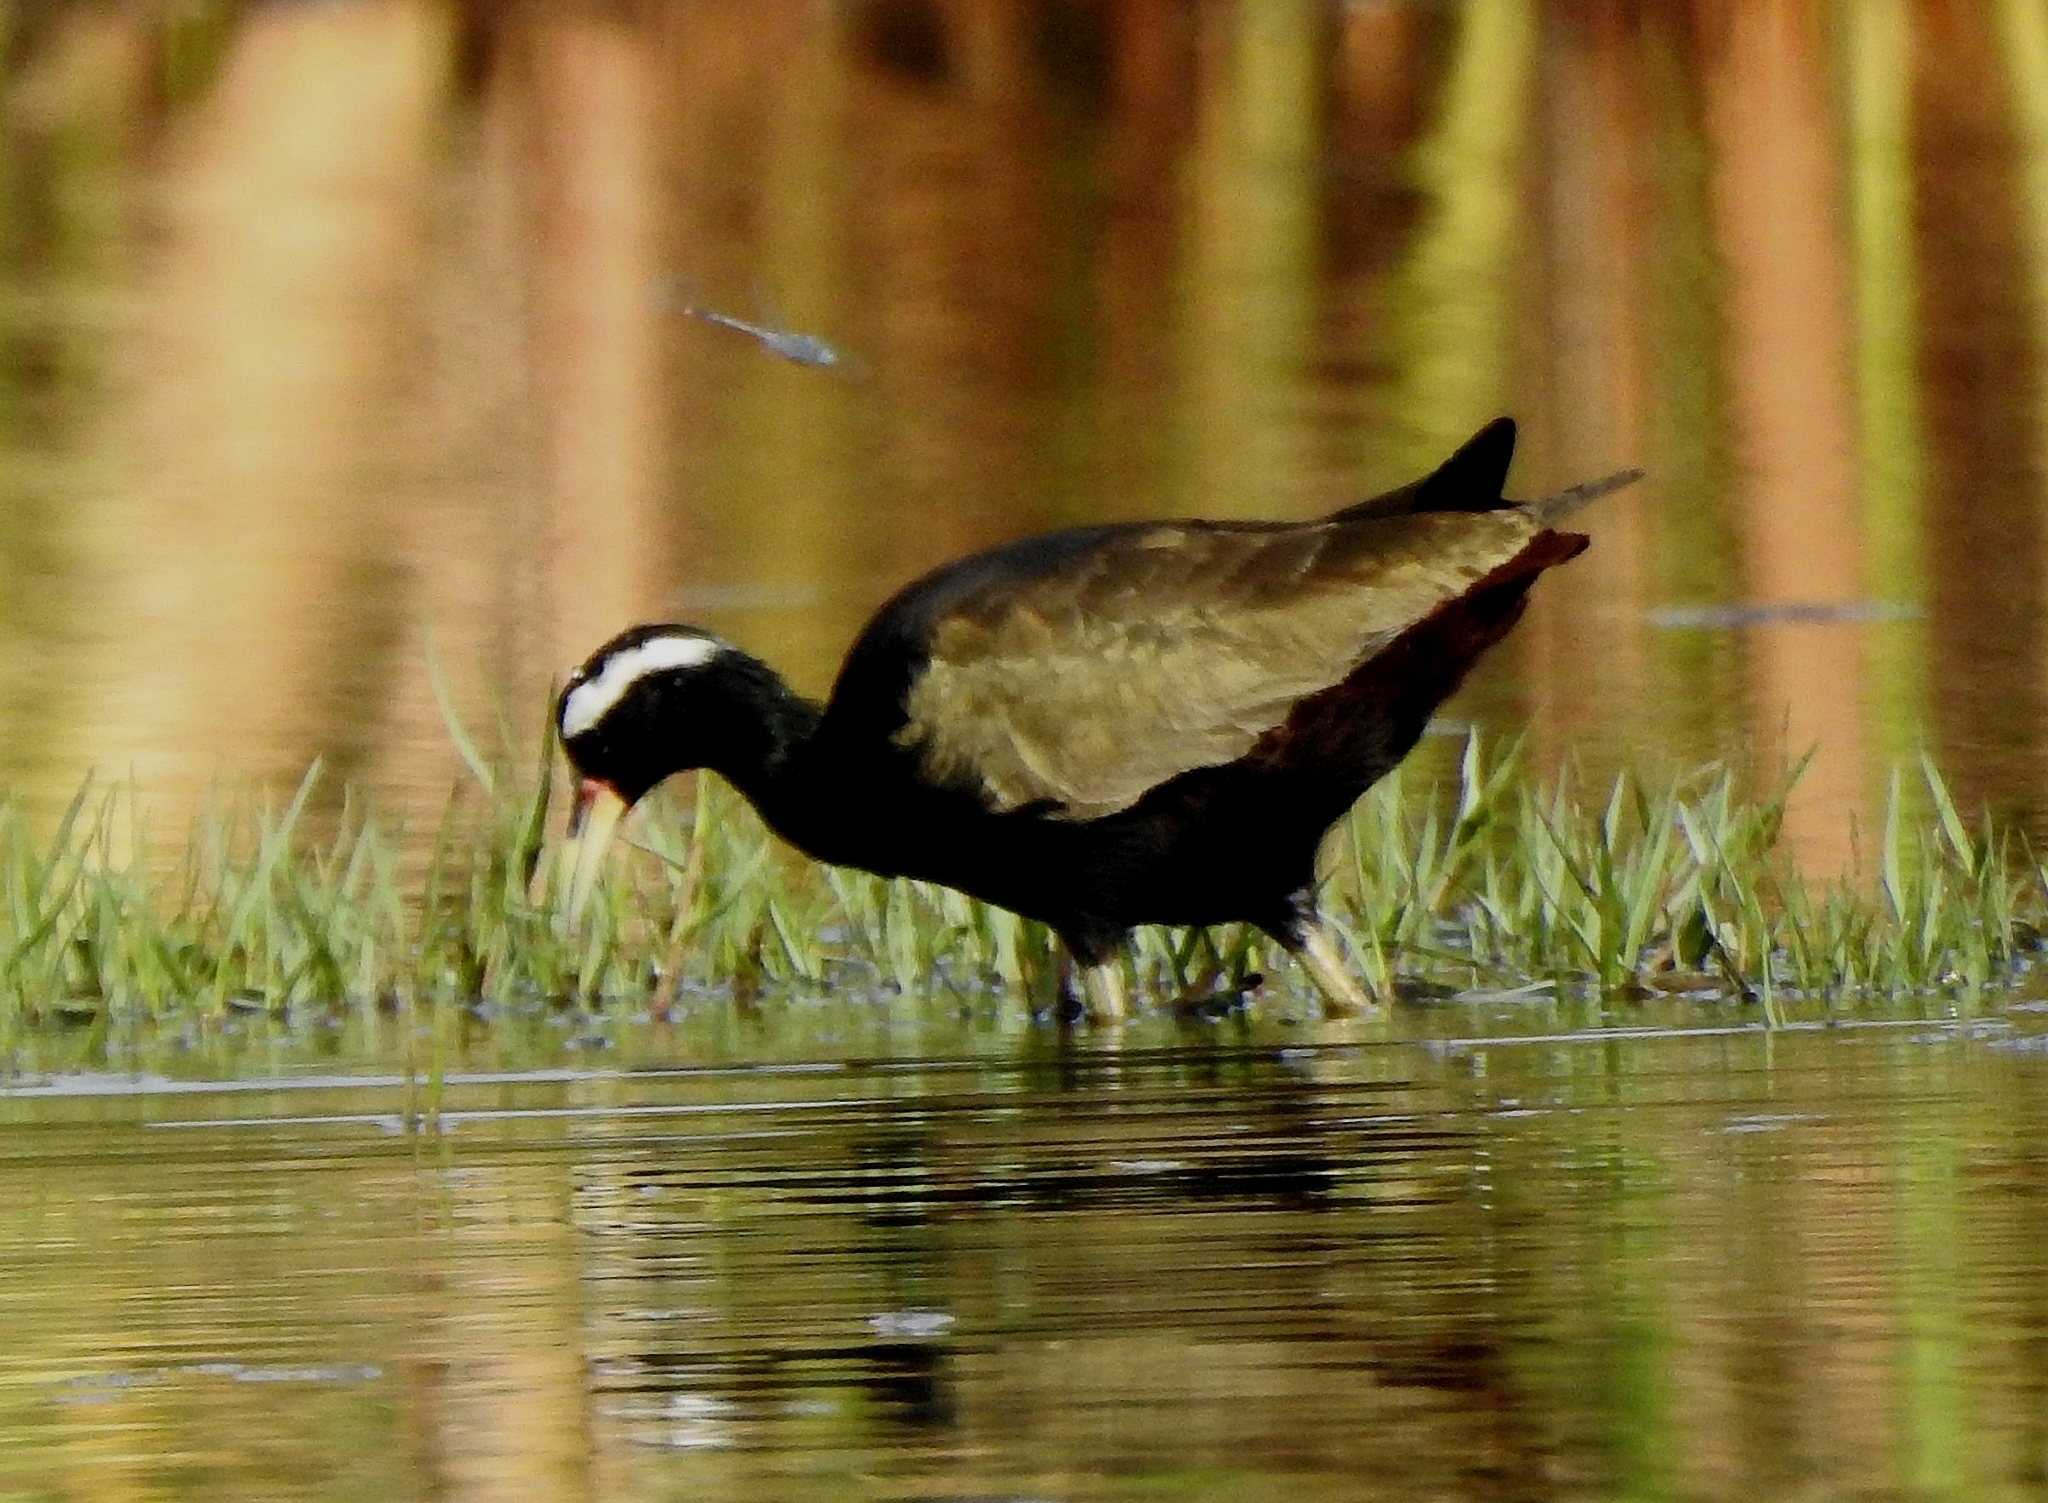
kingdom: Animalia
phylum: Chordata
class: Aves
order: Charadriiformes
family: Jacanidae
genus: Metopidius
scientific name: Metopidius indicus
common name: Bronze-winged jacana
